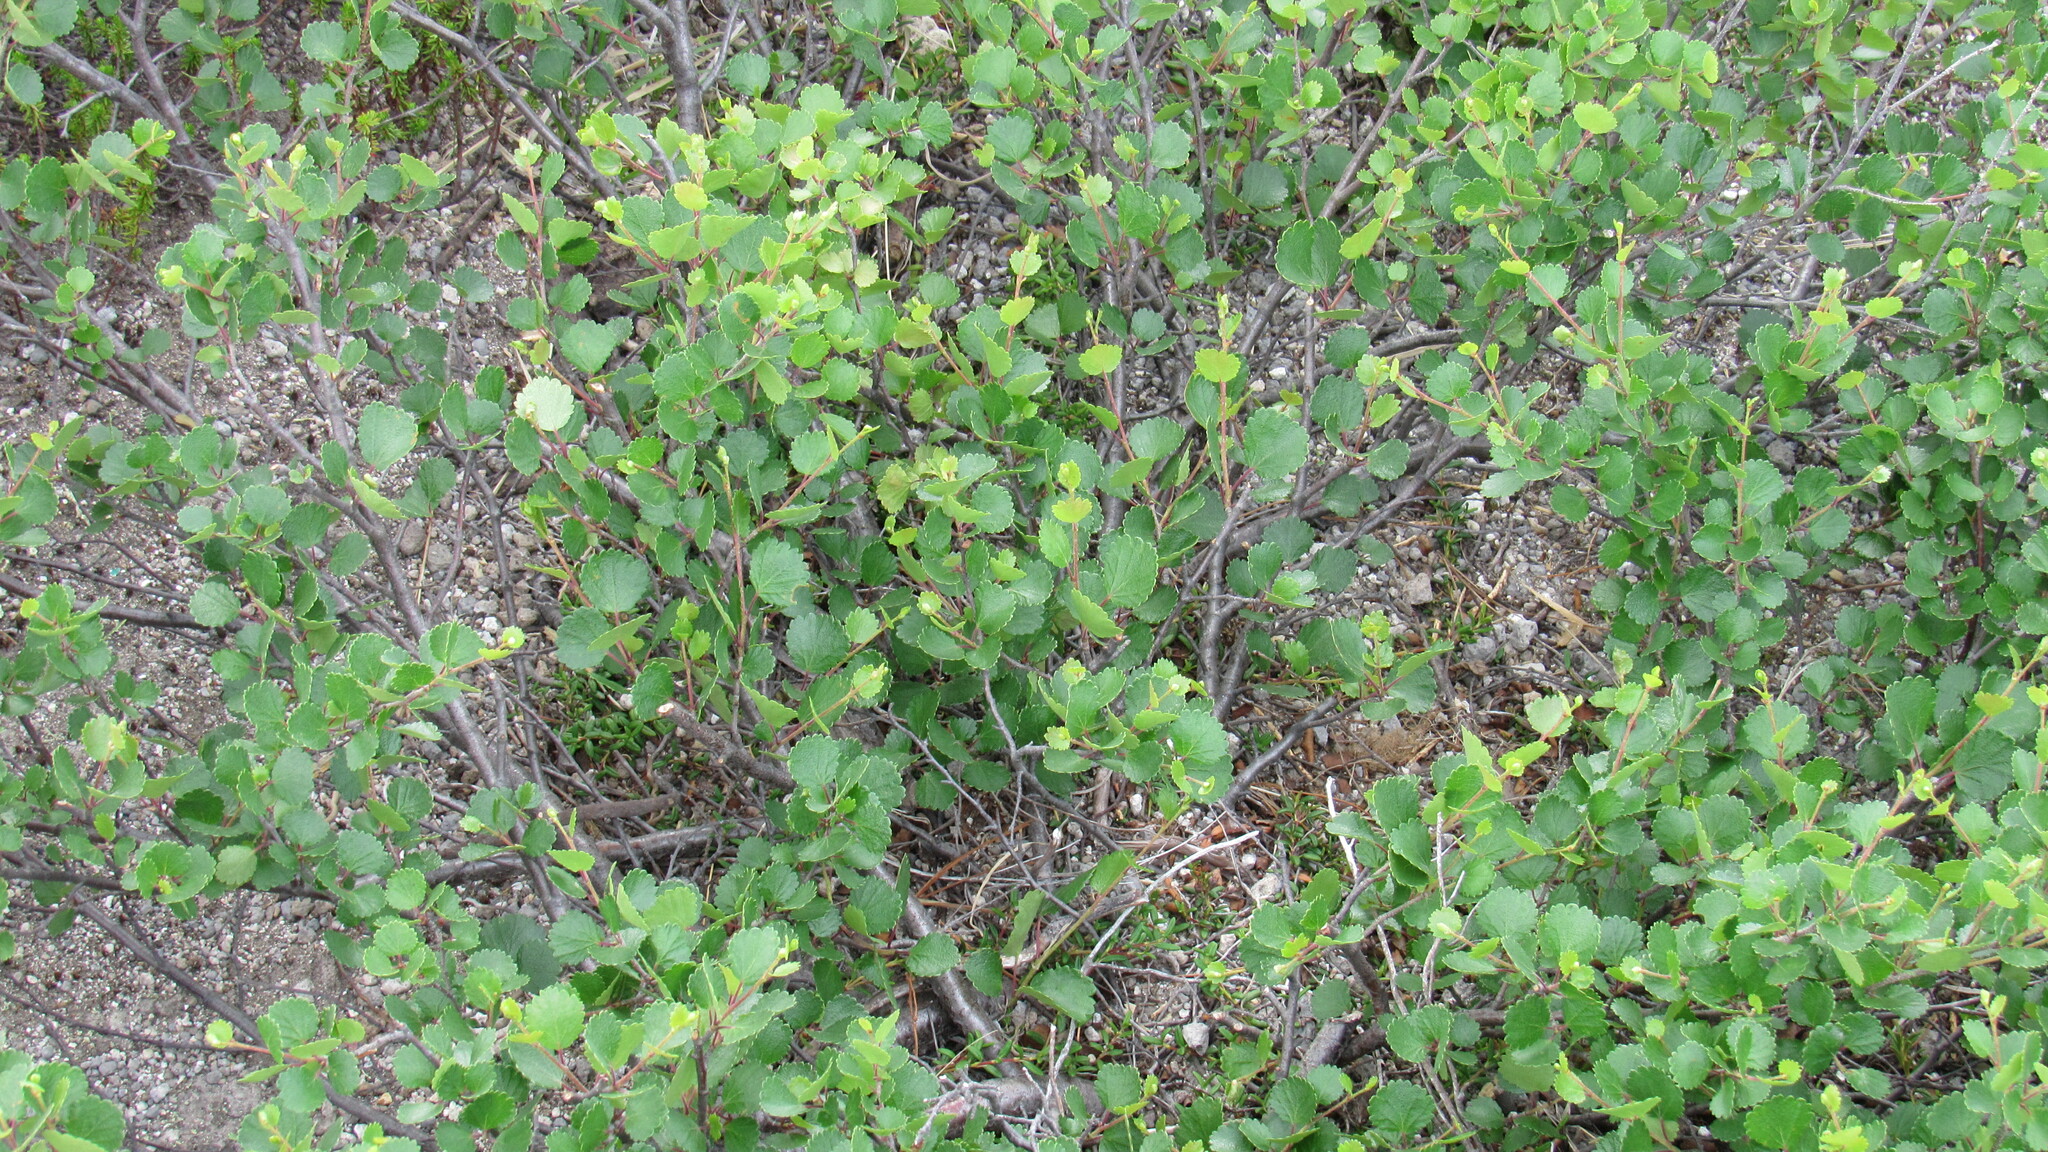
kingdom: Plantae
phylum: Tracheophyta
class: Magnoliopsida
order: Fagales
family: Betulaceae
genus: Betula
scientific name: Betula nana
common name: Arctic dwarf birch
